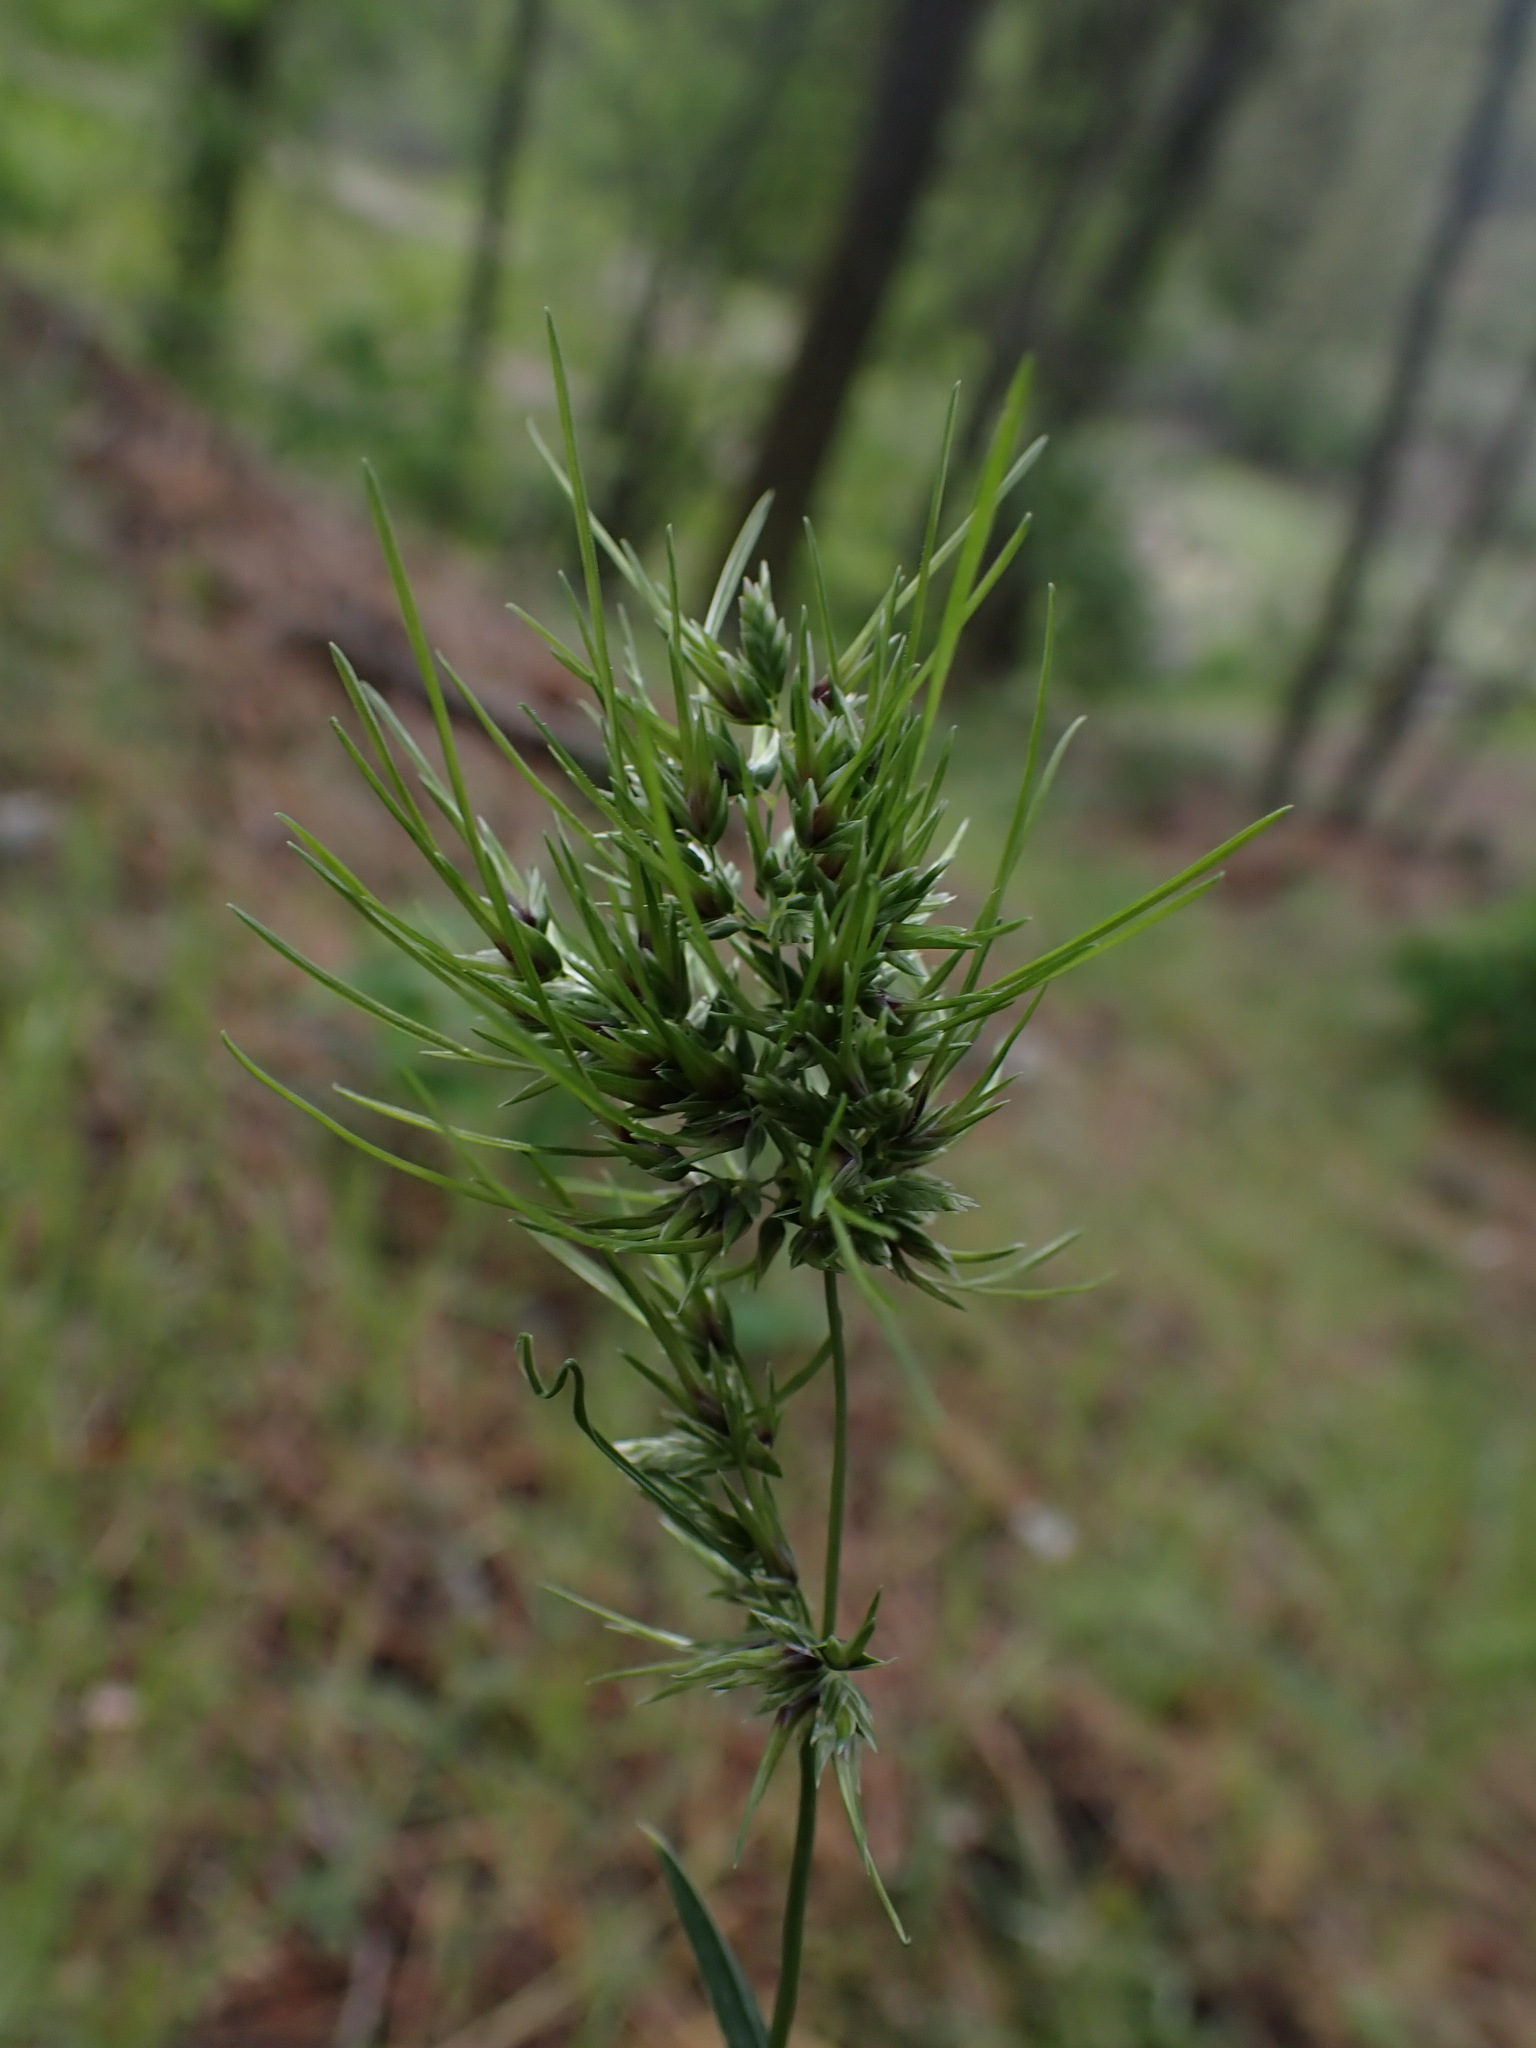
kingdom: Plantae
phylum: Tracheophyta
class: Liliopsida
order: Poales
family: Poaceae
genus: Poa
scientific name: Poa bulbosa
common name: Bulbous bluegrass
